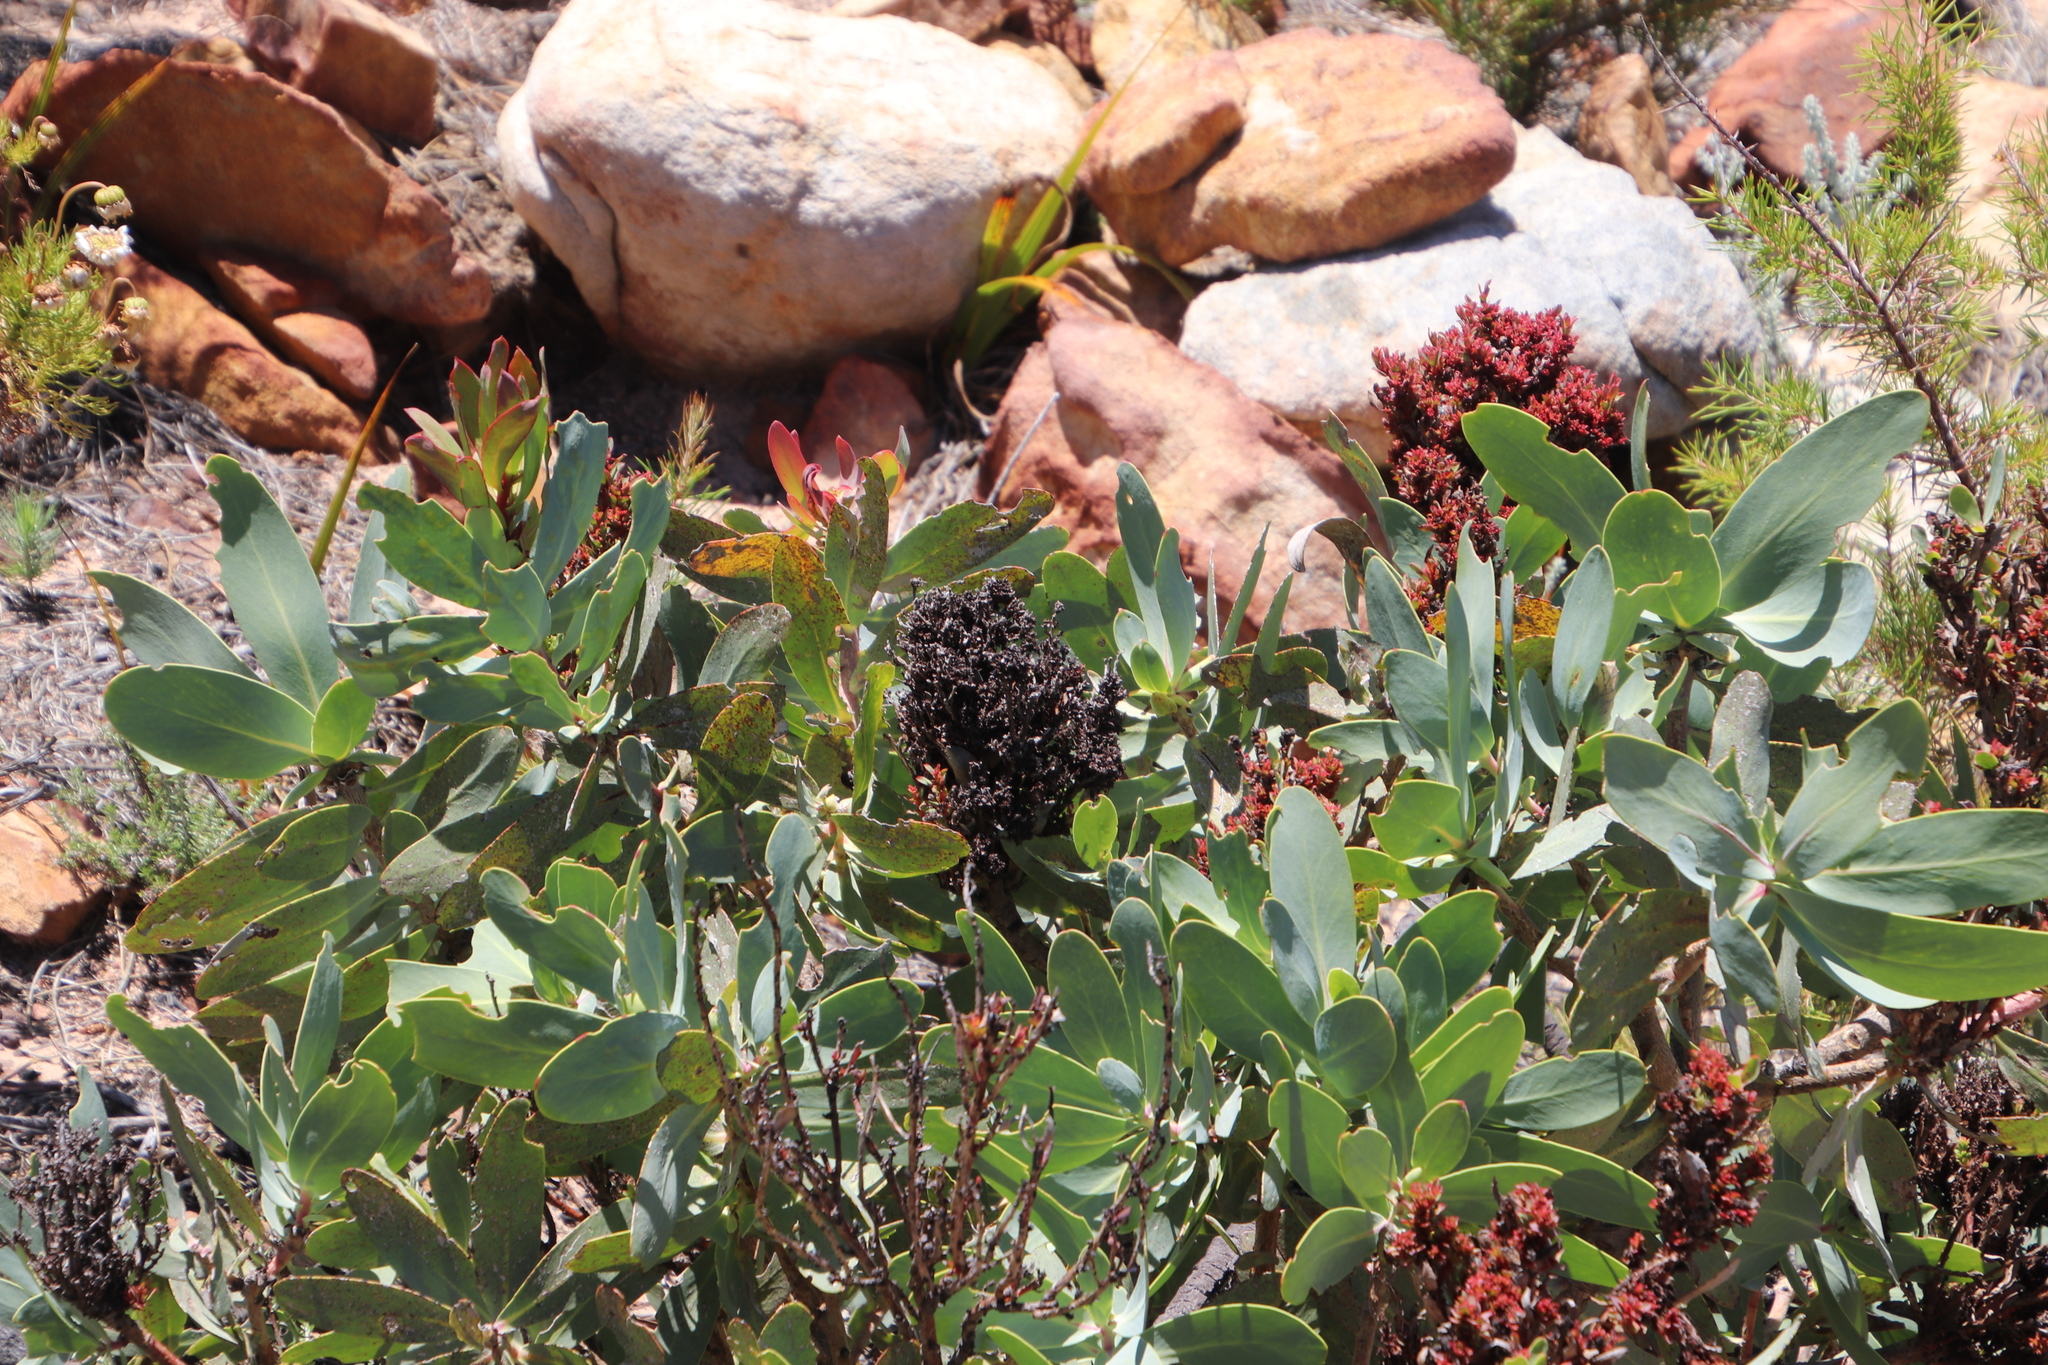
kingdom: Plantae
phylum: Tracheophyta
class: Magnoliopsida
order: Proteales
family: Proteaceae
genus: Protea
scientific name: Protea nitida
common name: Tree protea
